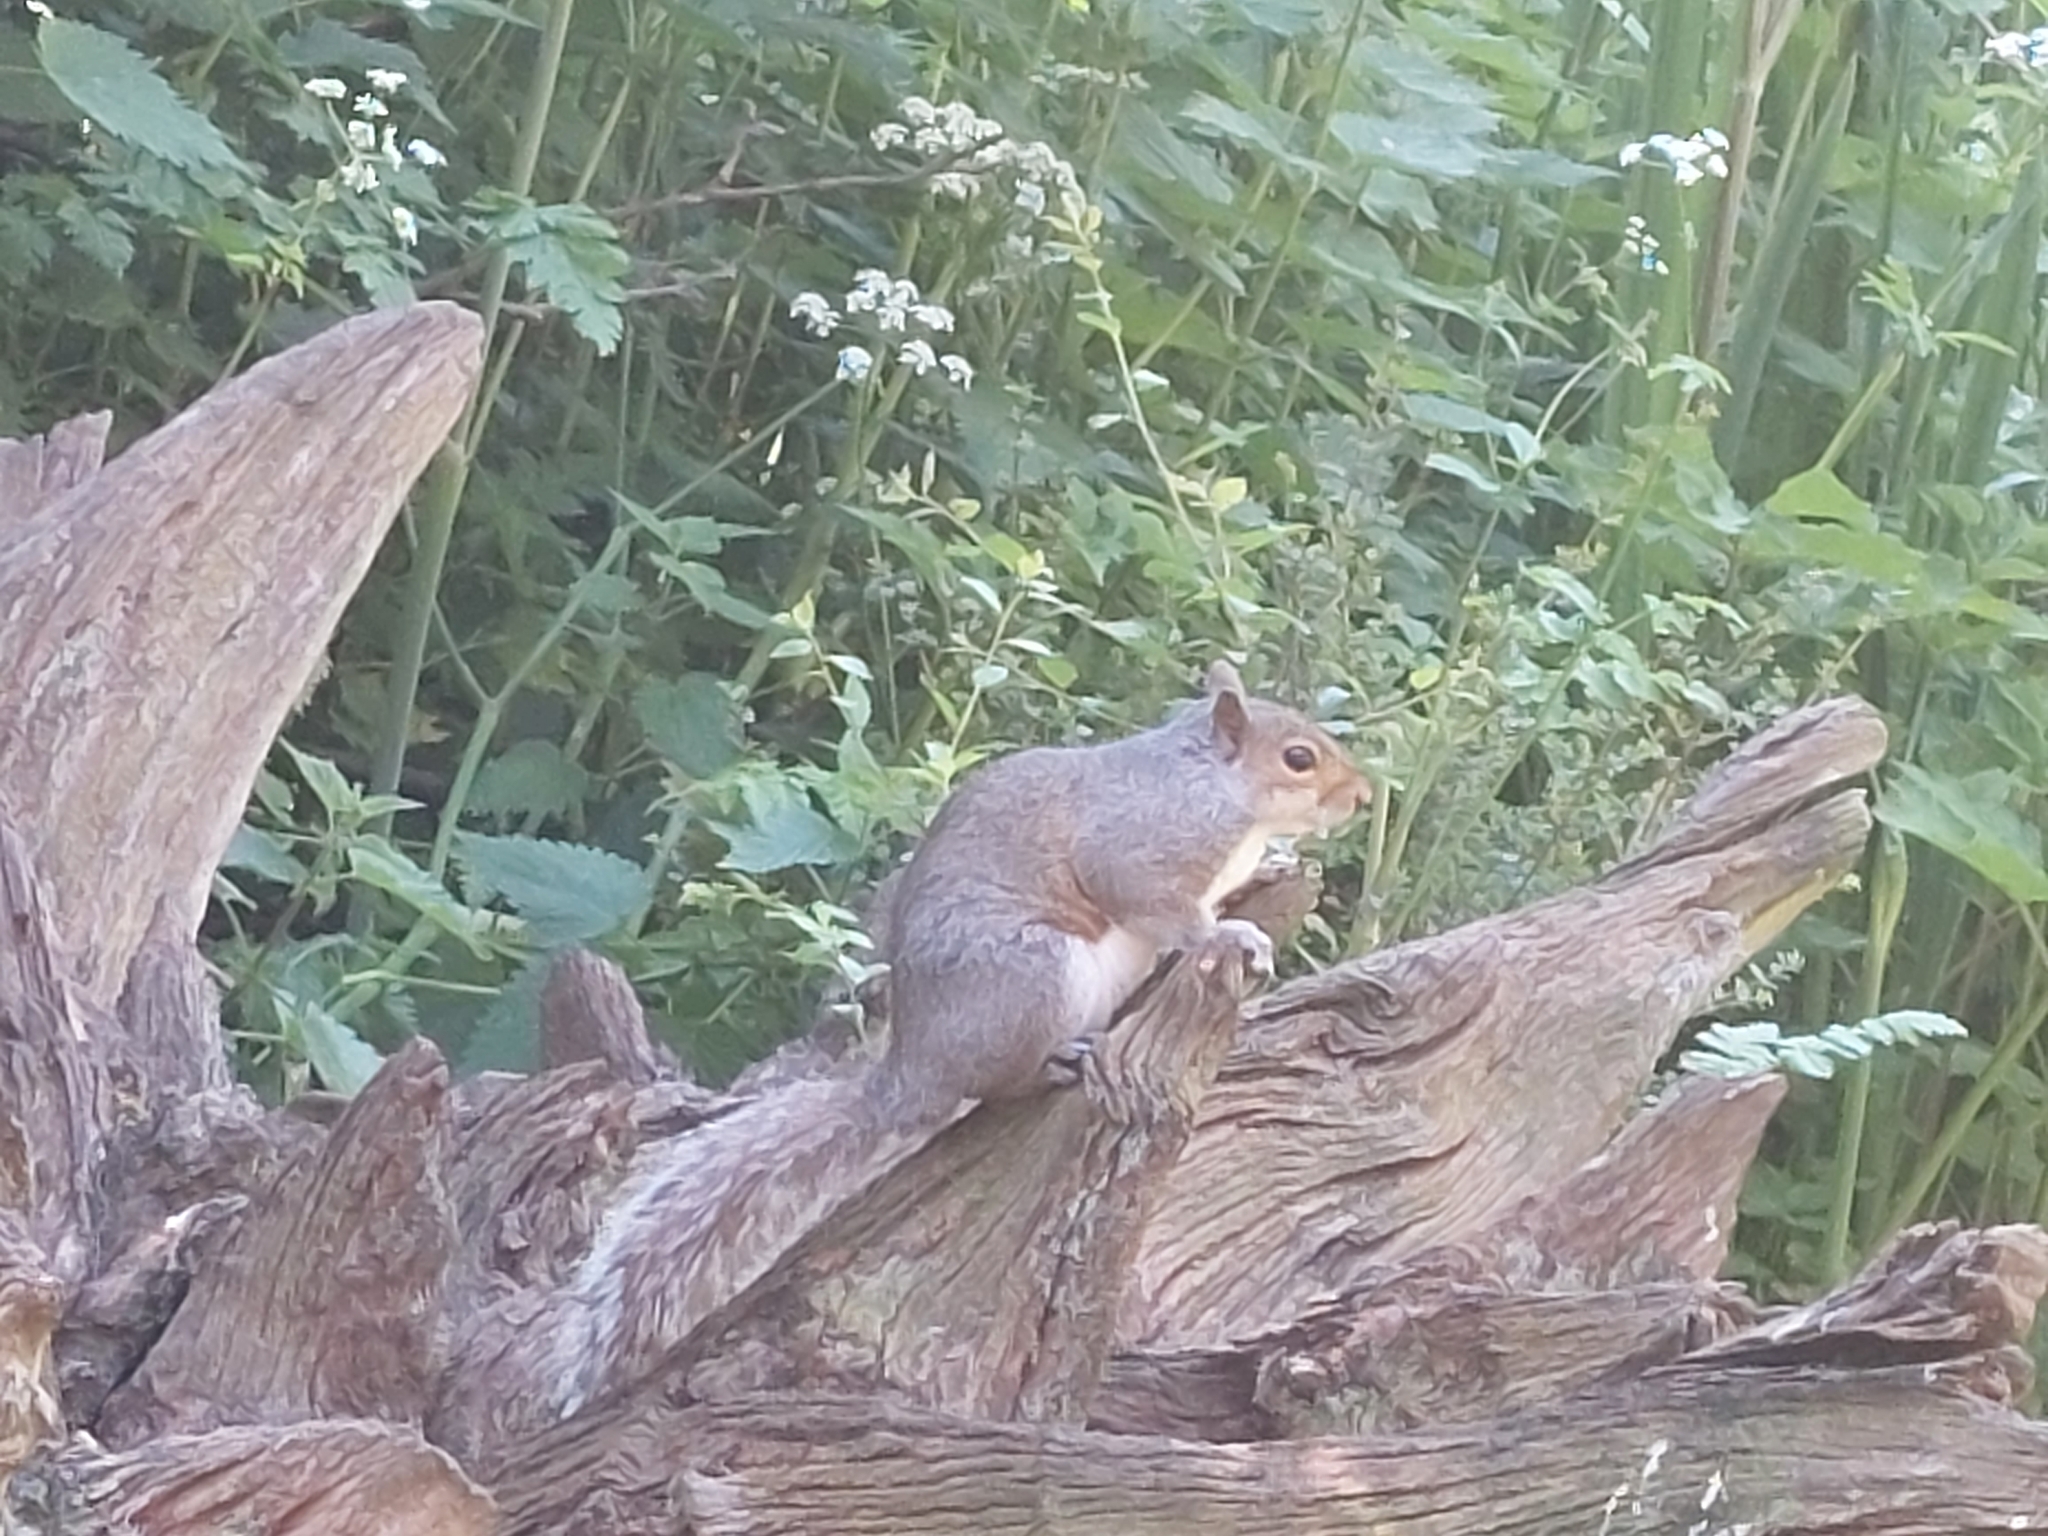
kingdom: Animalia
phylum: Chordata
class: Mammalia
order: Rodentia
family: Sciuridae
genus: Sciurus
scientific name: Sciurus carolinensis
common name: Eastern gray squirrel
